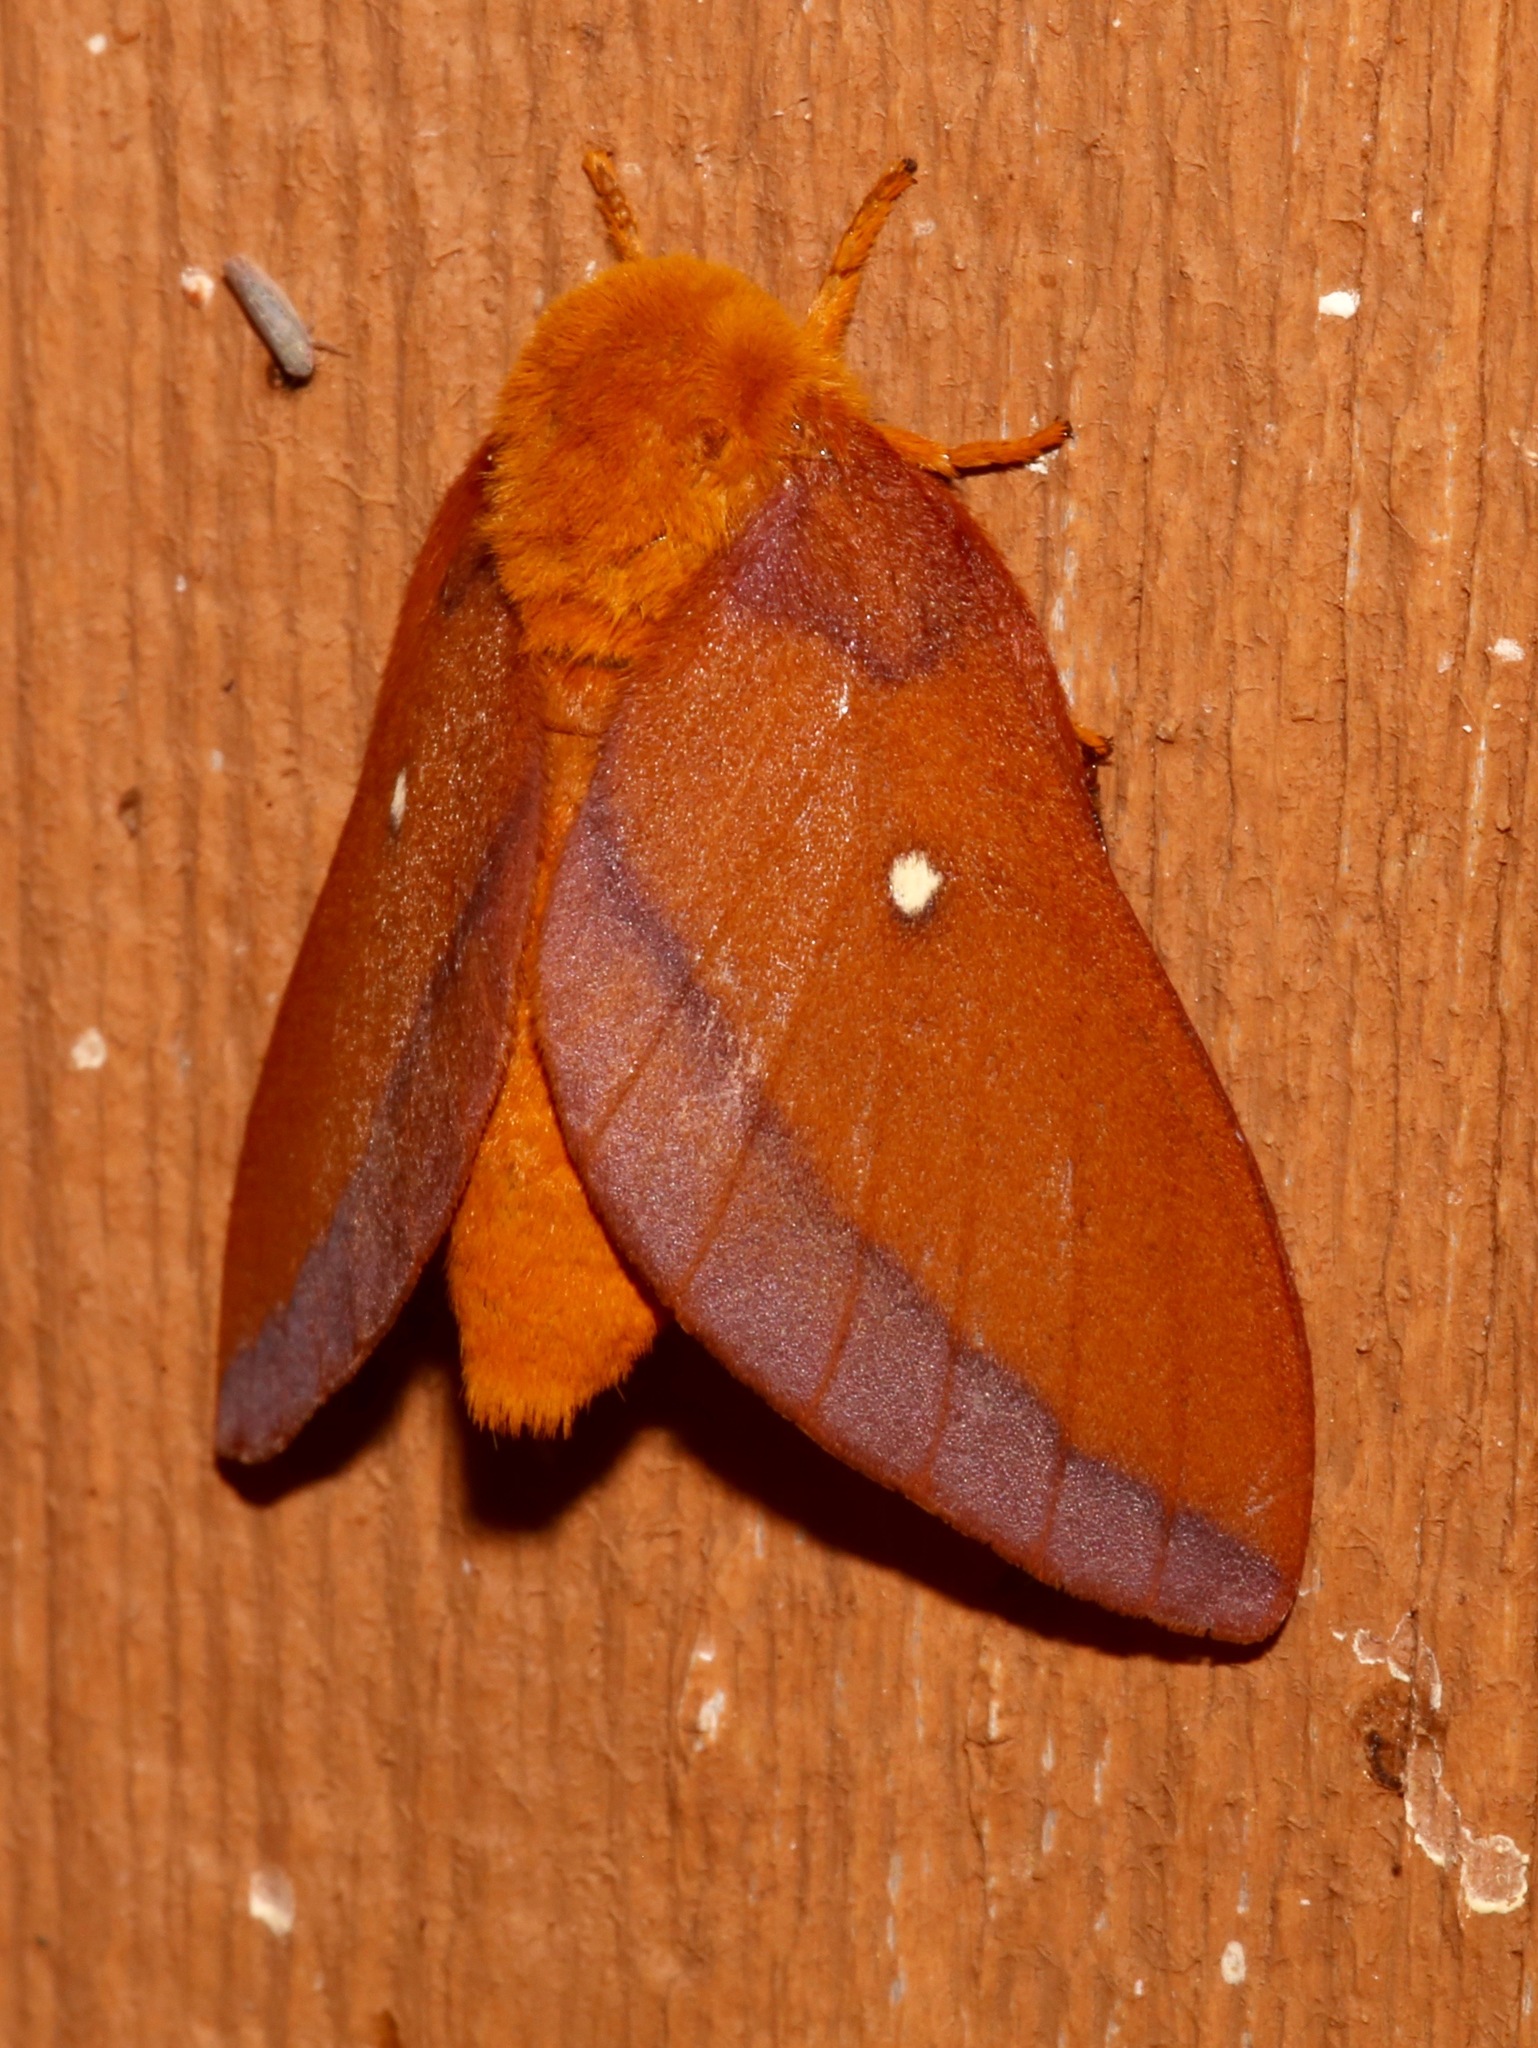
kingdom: Animalia
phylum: Arthropoda
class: Insecta
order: Lepidoptera
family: Saturniidae
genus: Anisota
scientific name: Anisota virginiensis
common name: Pink striped oakworm moth
